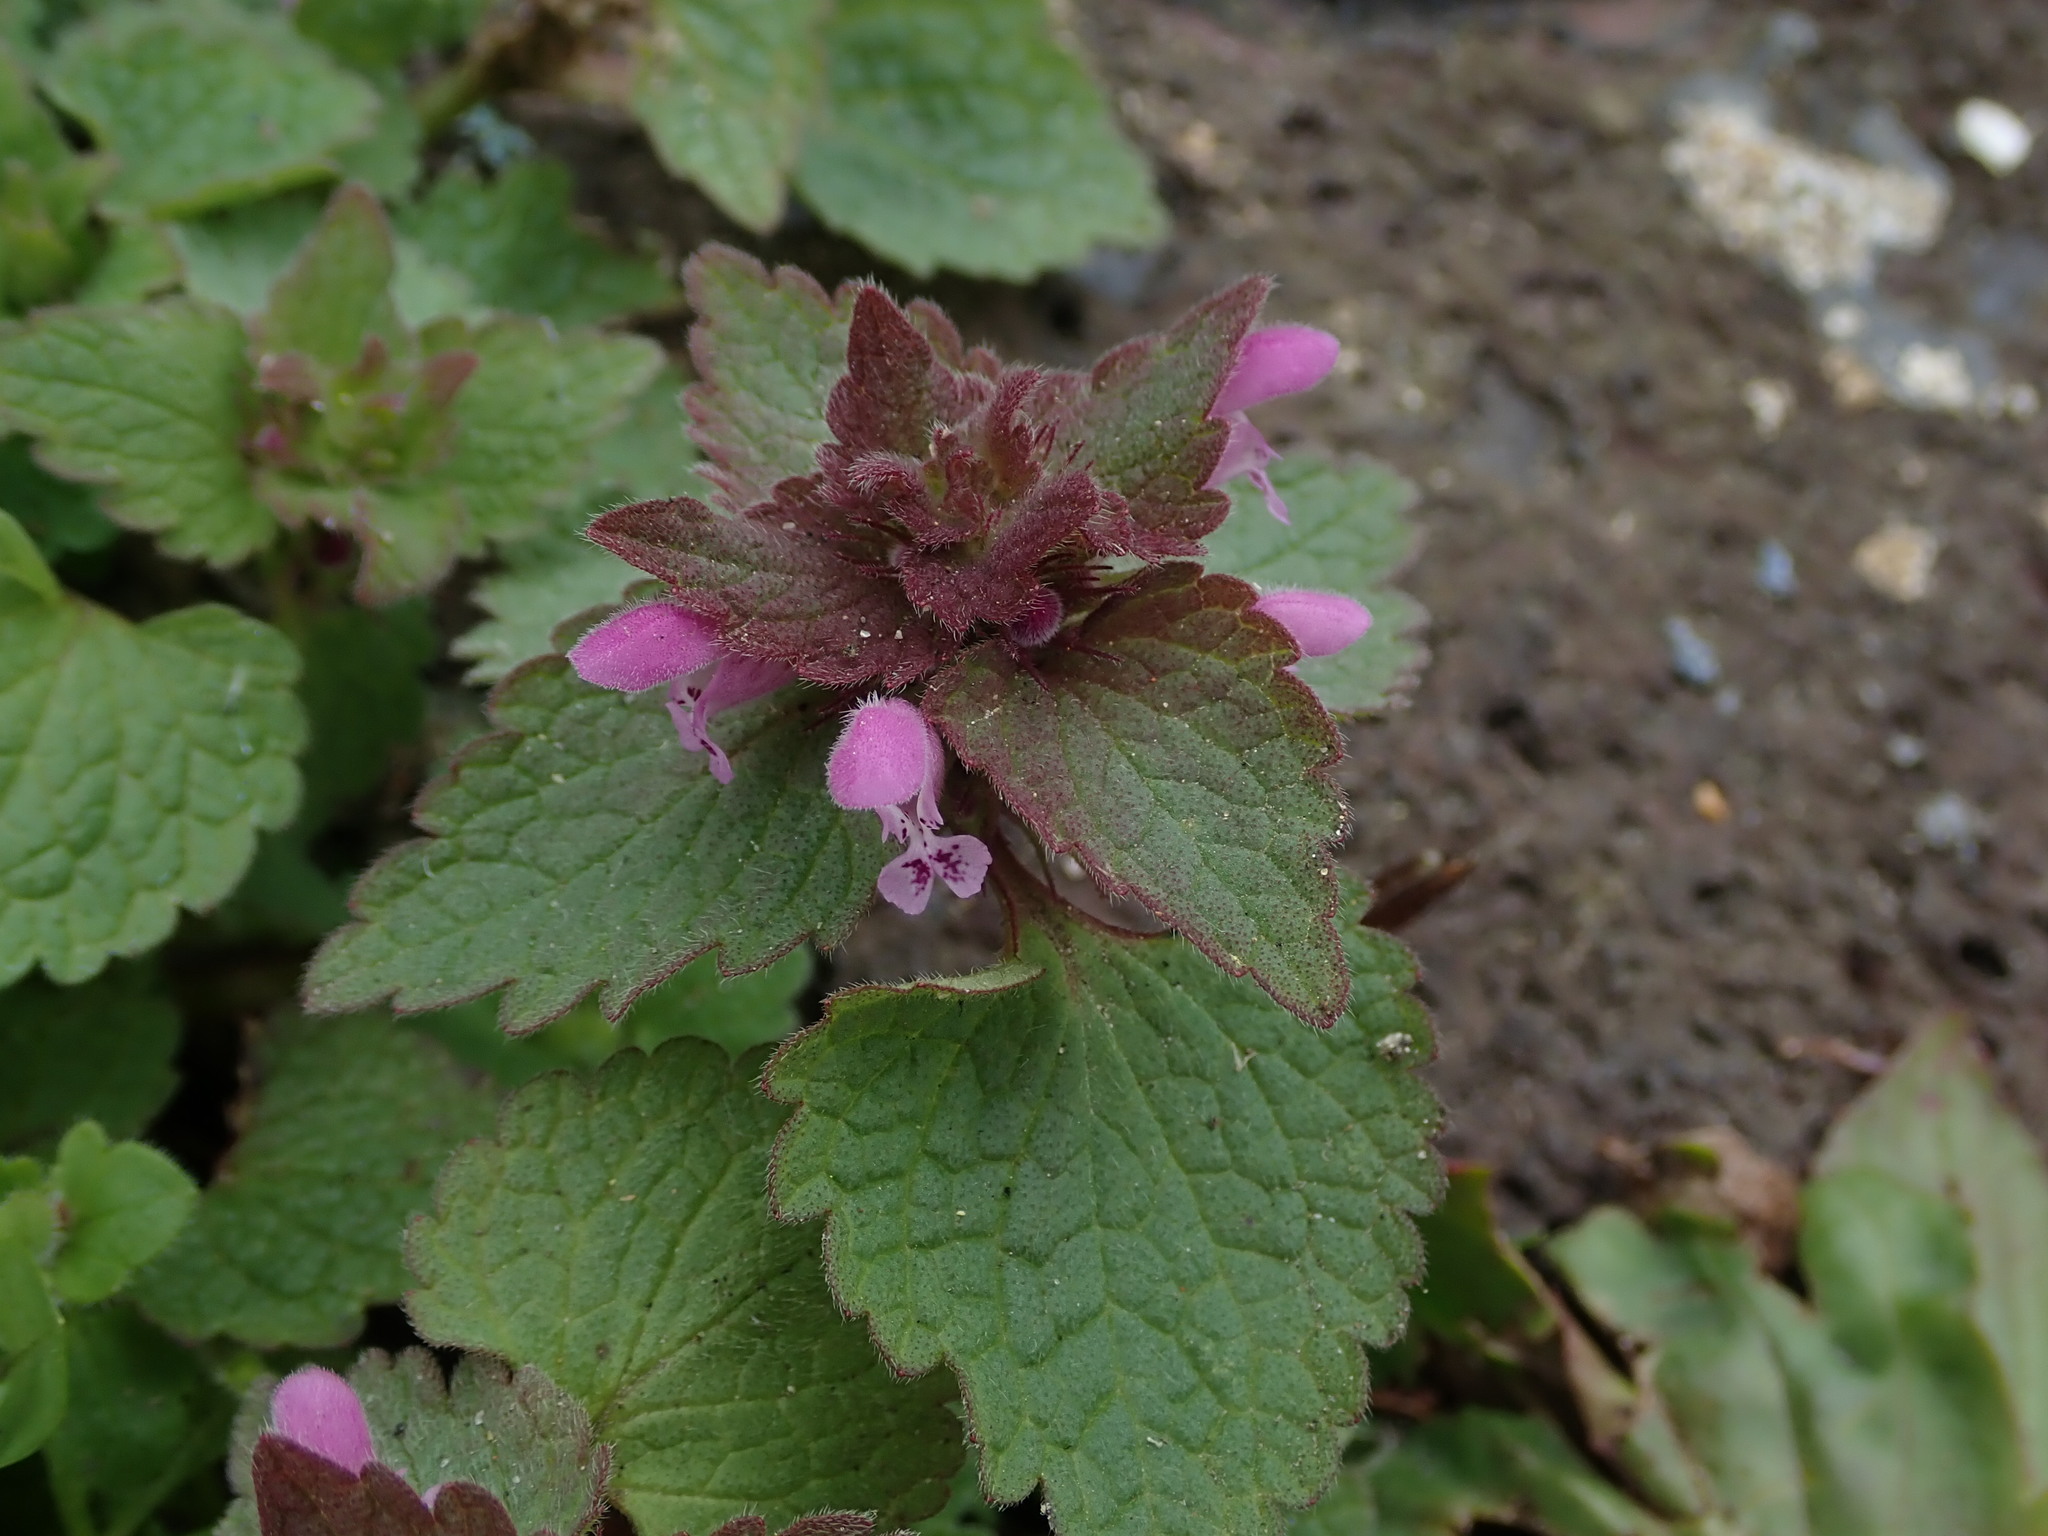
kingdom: Plantae
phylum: Tracheophyta
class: Magnoliopsida
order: Lamiales
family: Lamiaceae
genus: Lamium
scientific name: Lamium purpureum
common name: Red dead-nettle
